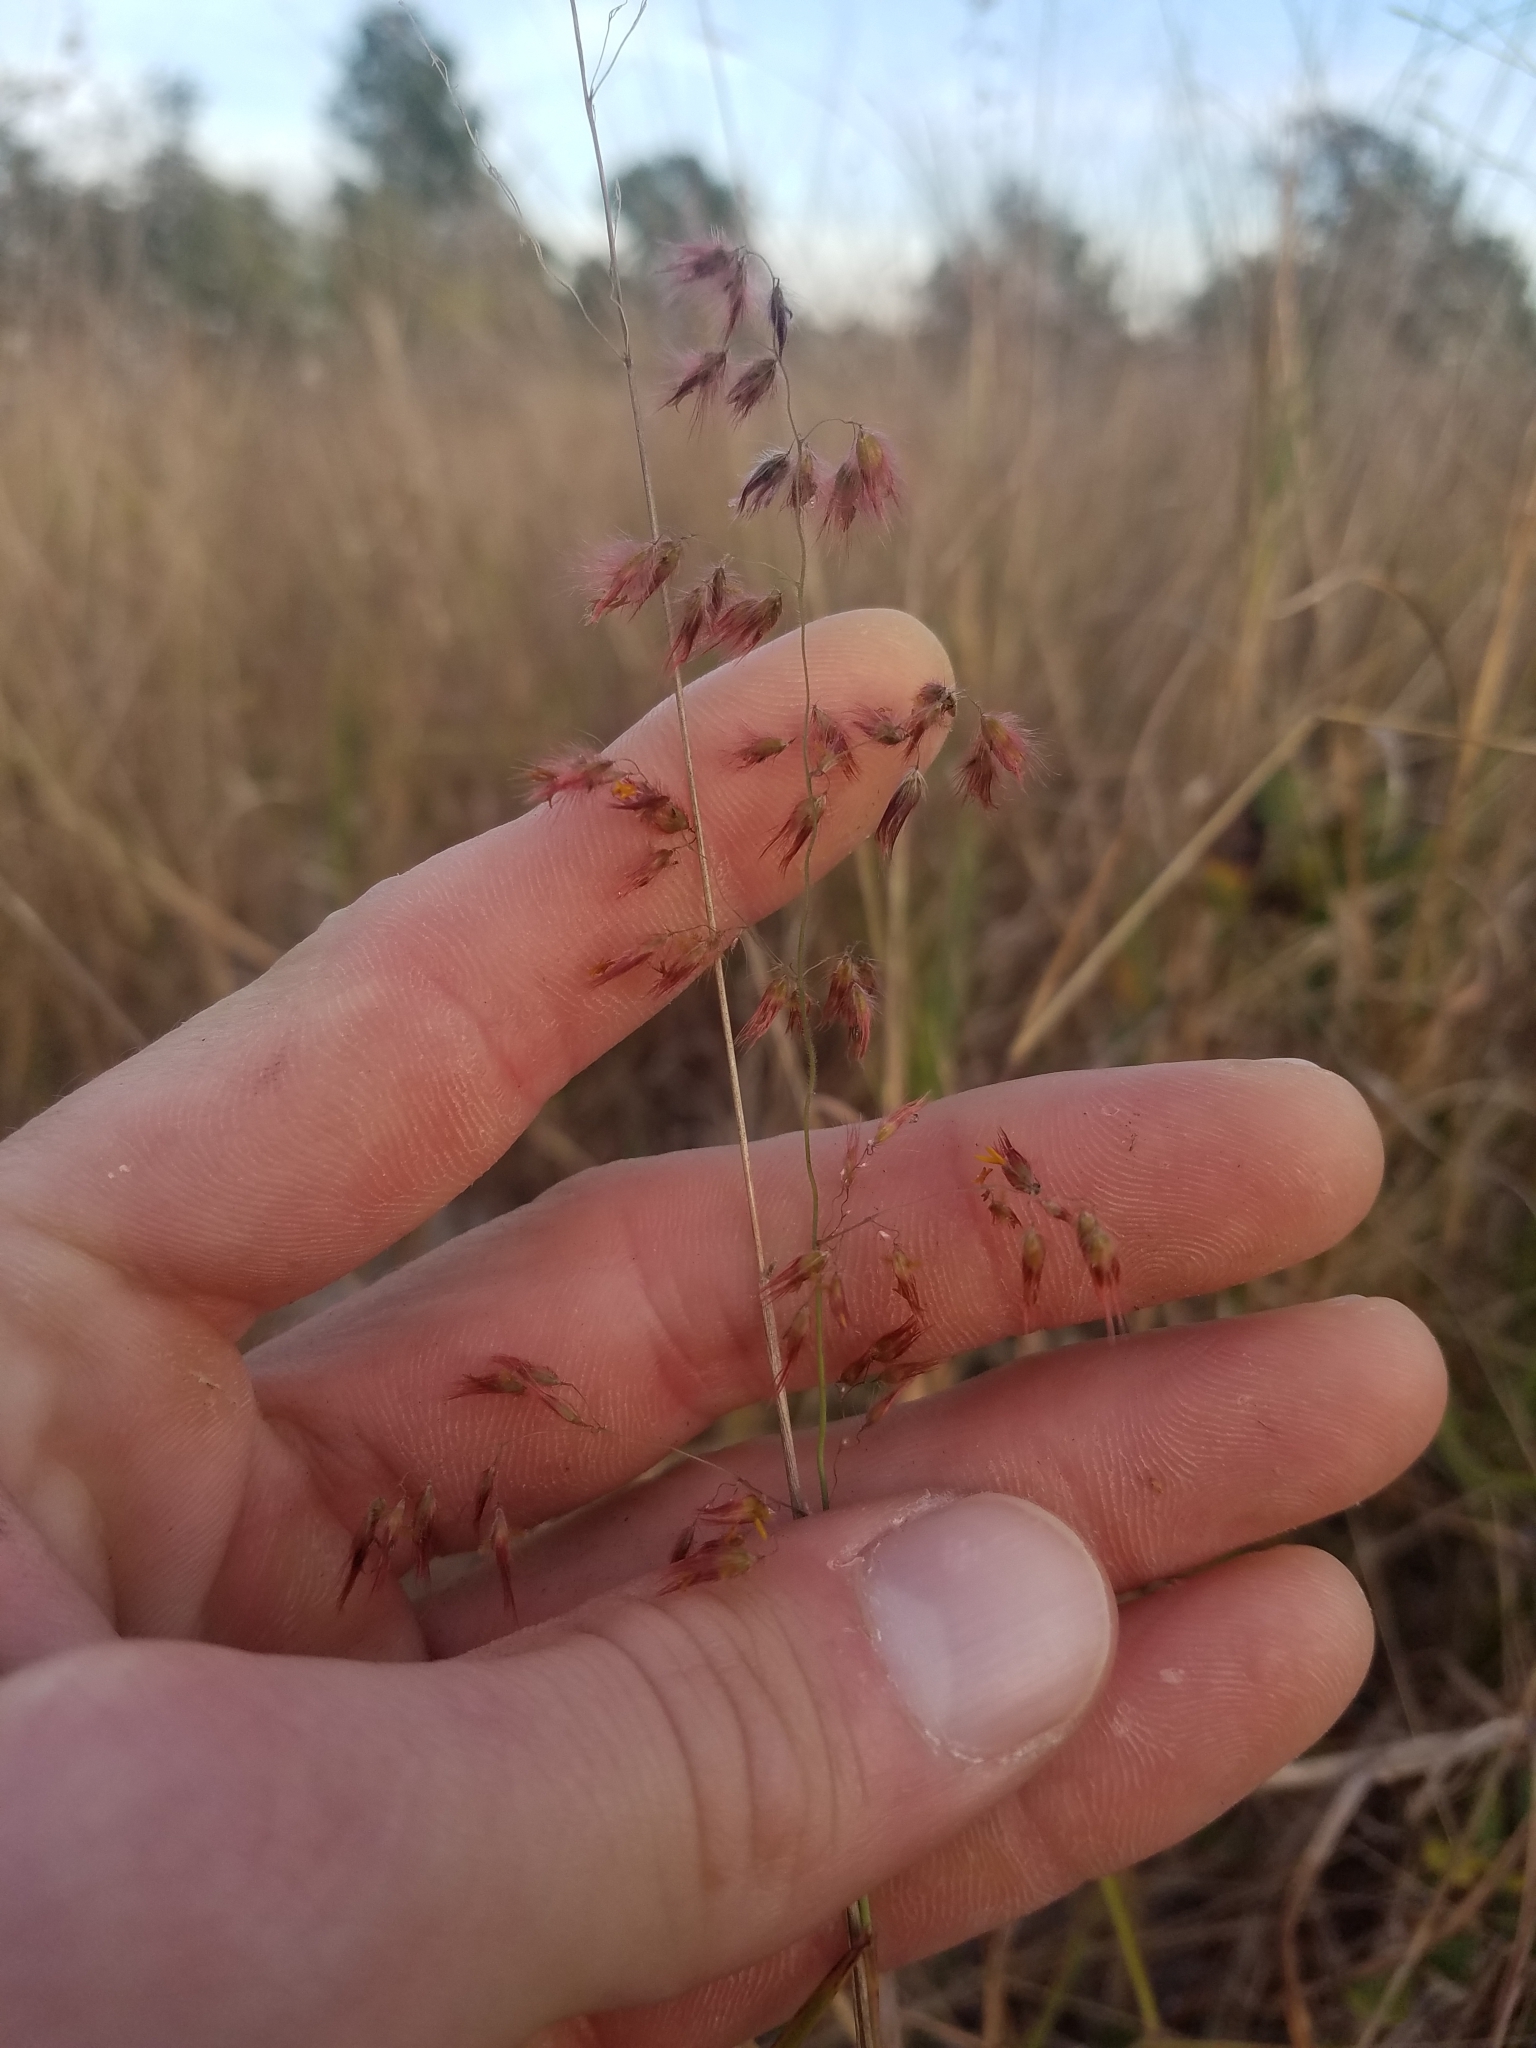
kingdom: Plantae
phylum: Tracheophyta
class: Liliopsida
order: Poales
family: Poaceae
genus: Melinis
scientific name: Melinis repens
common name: Rose natal grass
